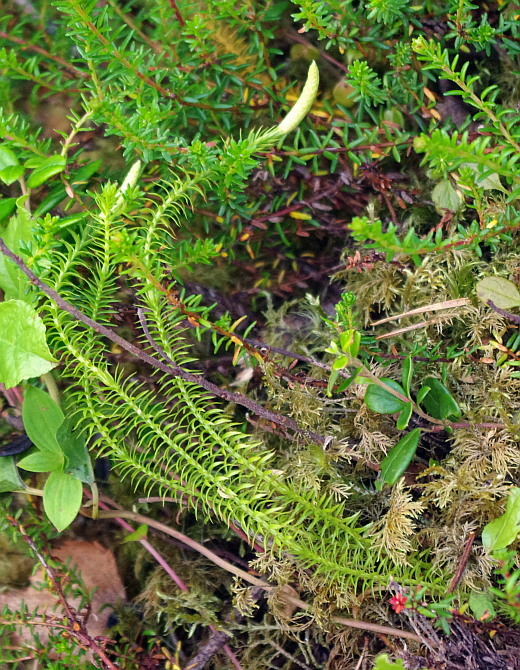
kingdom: Plantae
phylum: Tracheophyta
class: Lycopodiopsida
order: Lycopodiales
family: Lycopodiaceae
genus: Spinulum
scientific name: Spinulum annotinum
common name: Interrupted club-moss
